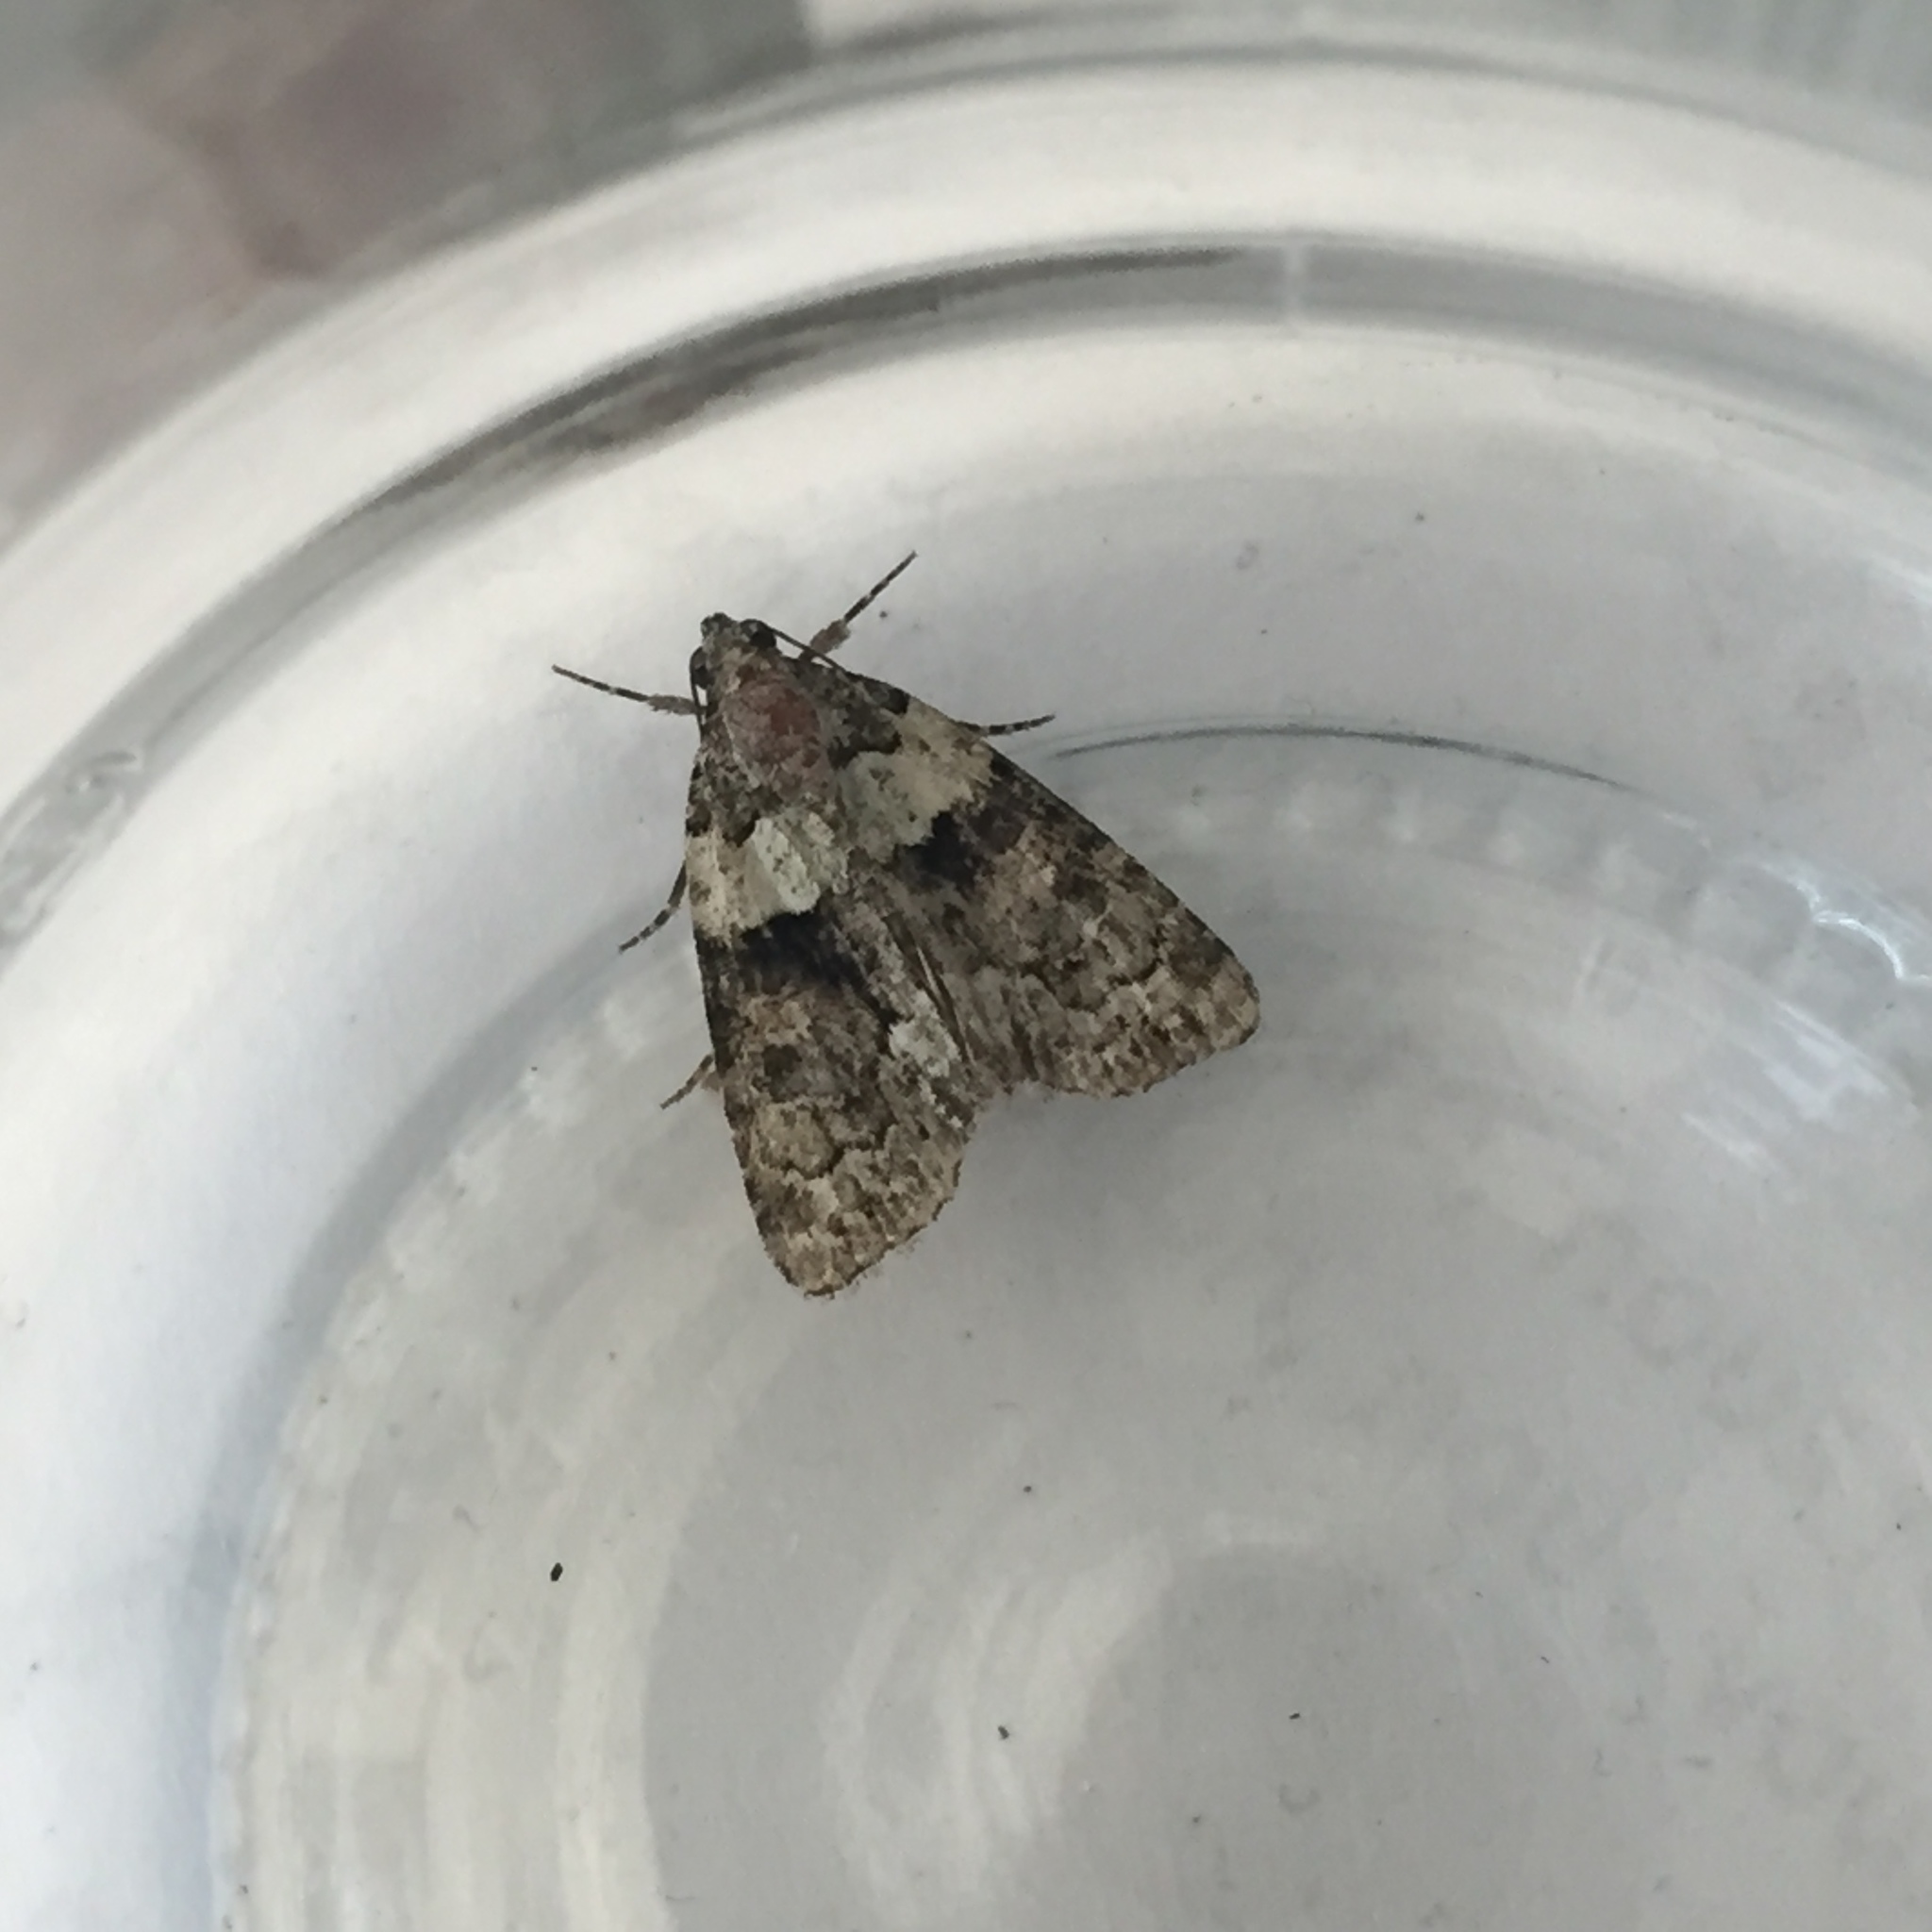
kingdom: Animalia
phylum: Arthropoda
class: Insecta
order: Lepidoptera
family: Noctuidae
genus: Cryphia
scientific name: Cryphia algae
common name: Tree-lichen beauty
